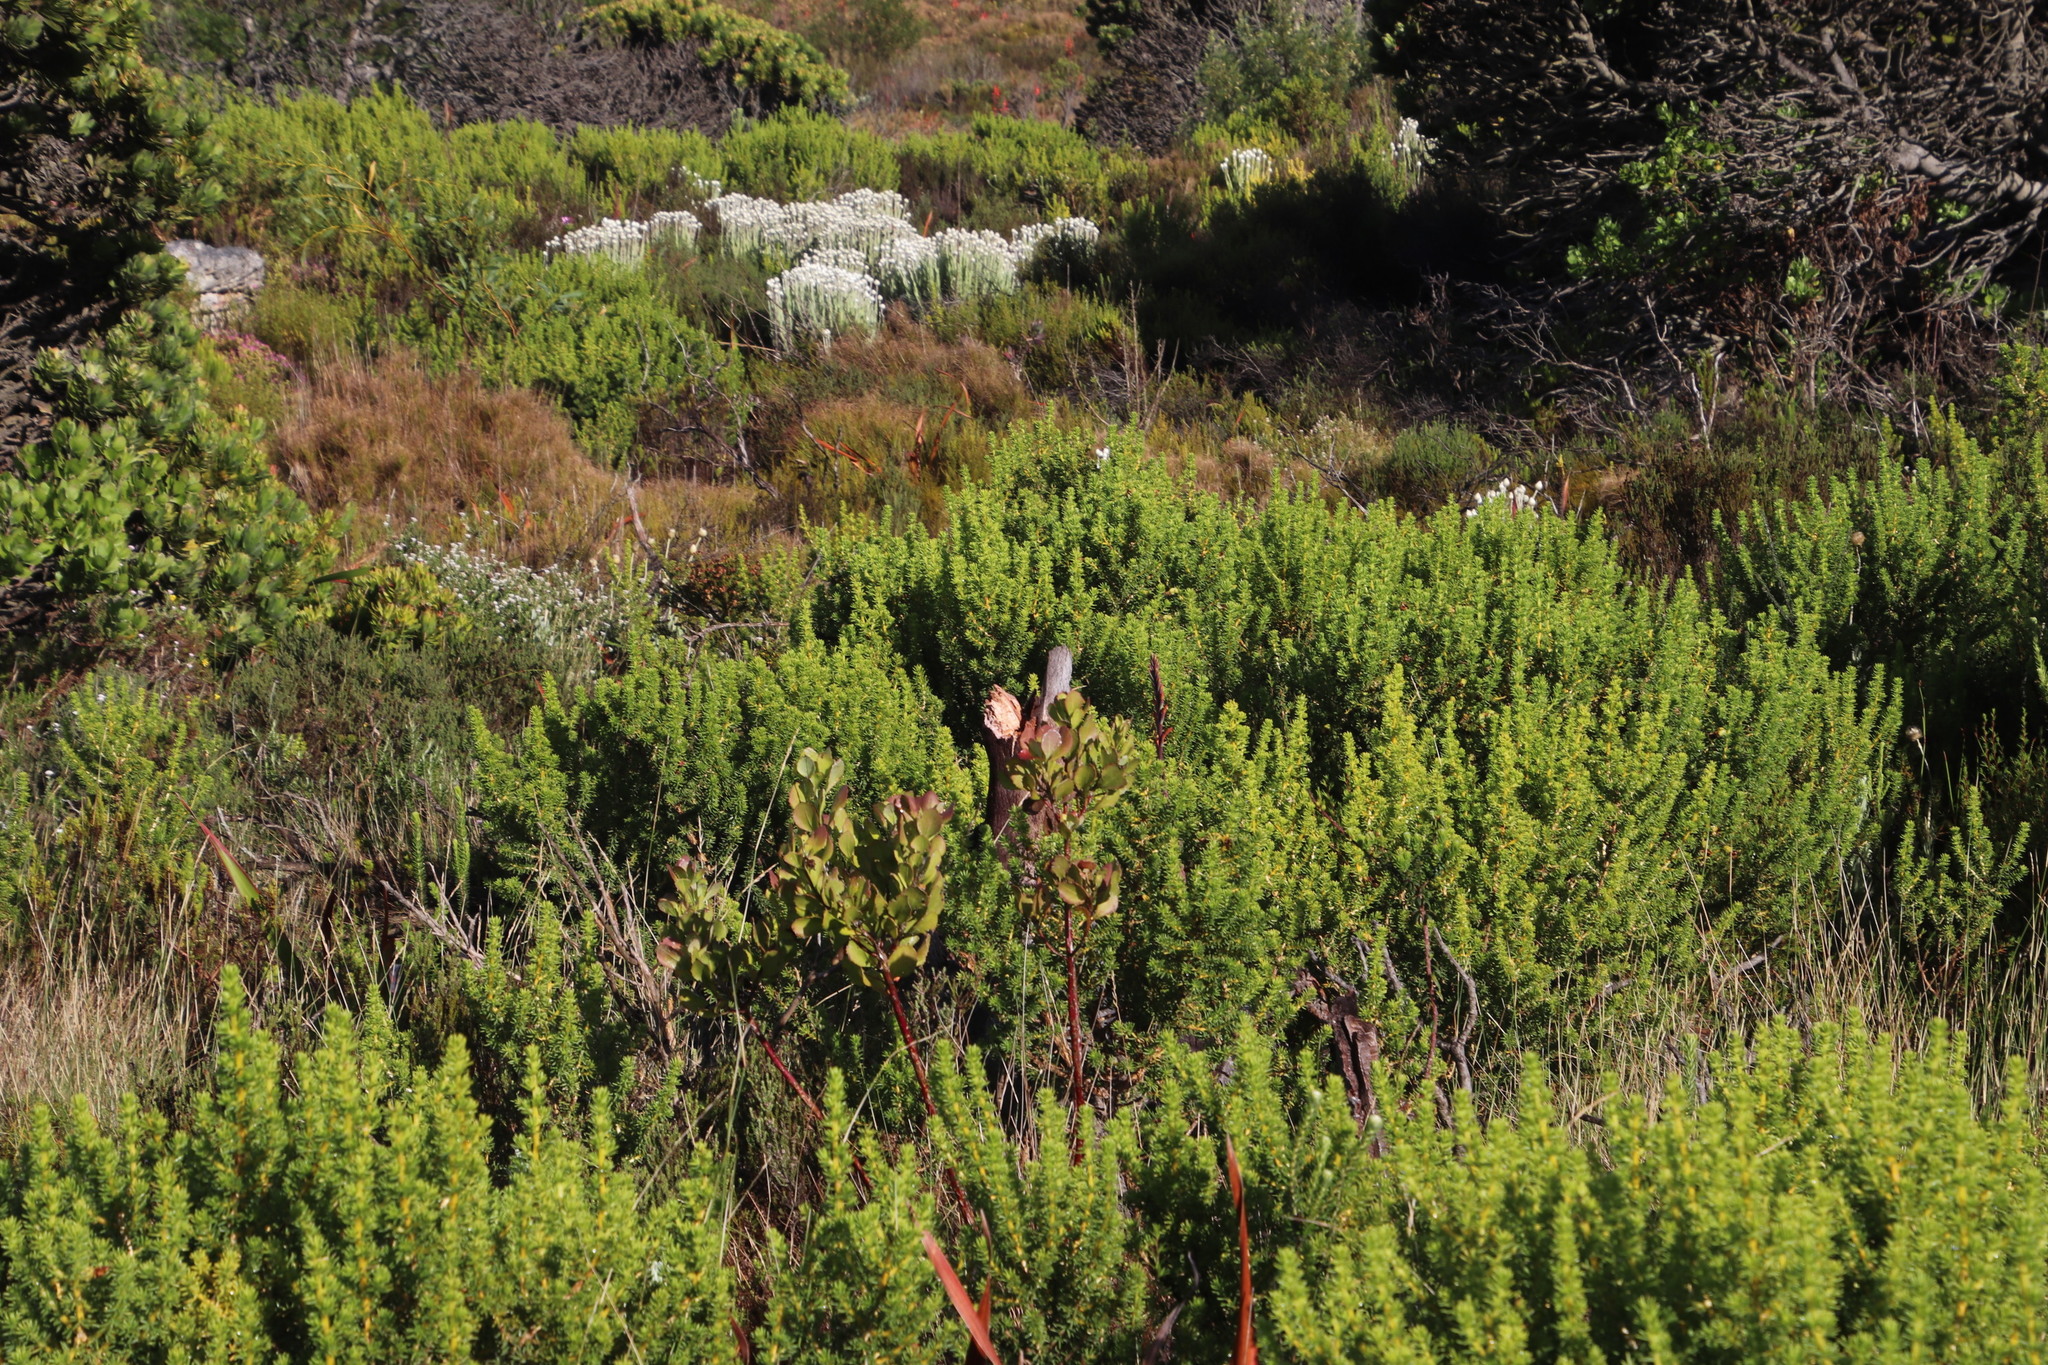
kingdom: Plantae
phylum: Tracheophyta
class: Magnoliopsida
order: Proteales
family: Proteaceae
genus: Protea
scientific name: Protea speciosa
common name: Brown-beard sugarbush
